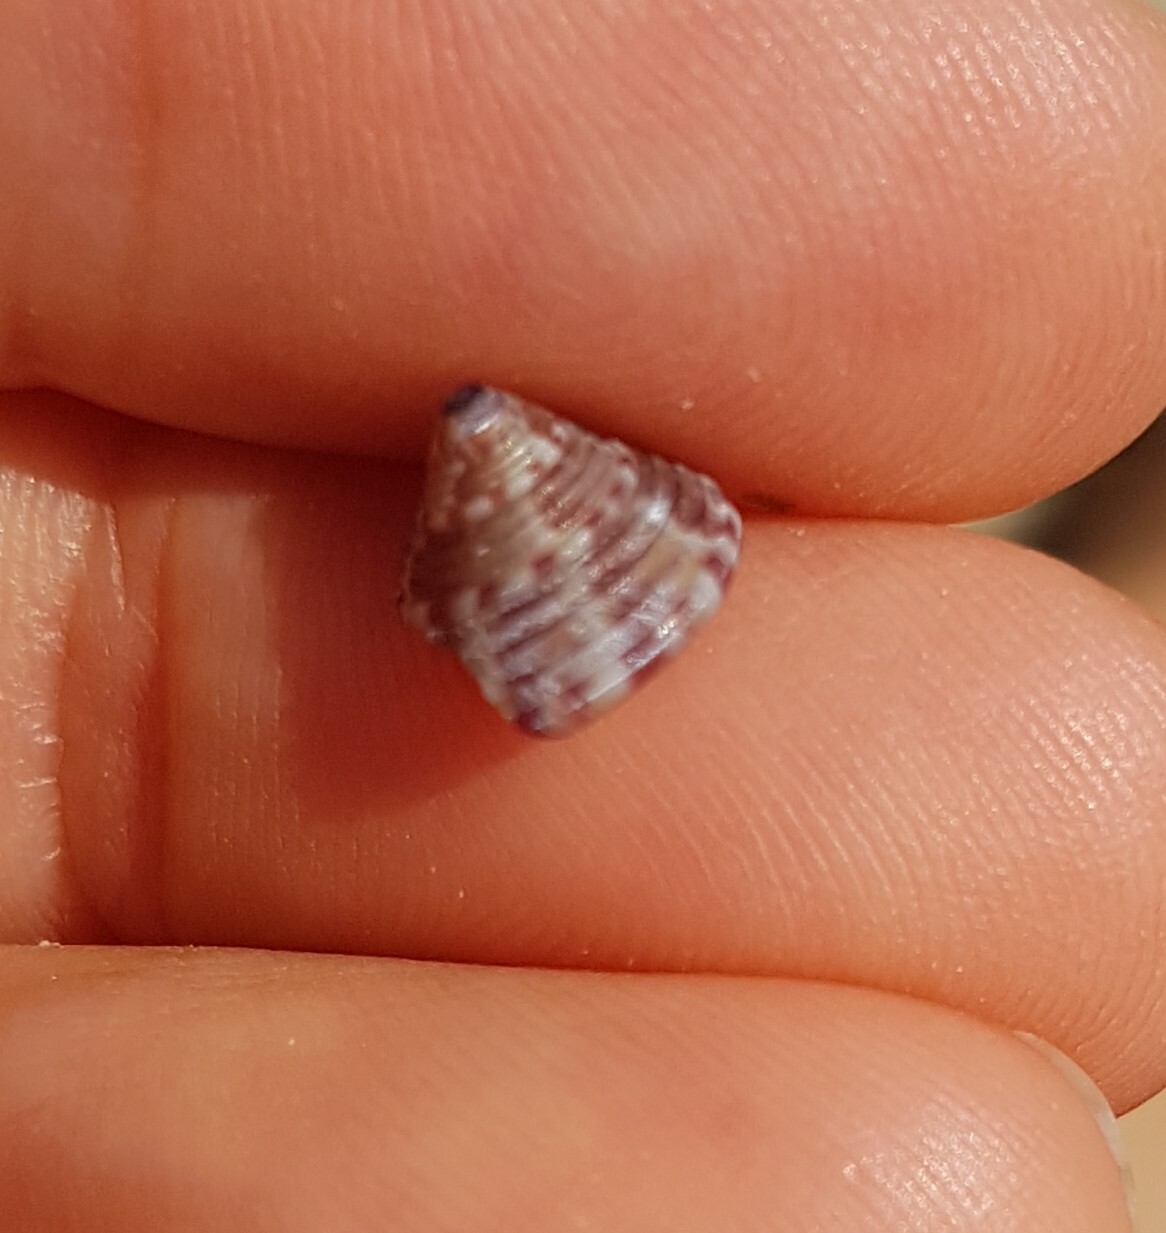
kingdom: Animalia
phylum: Mollusca
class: Gastropoda
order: Trochida
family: Calliostomatidae
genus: Calliostoma
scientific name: Calliostoma zizyphinum
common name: Painted top shell
